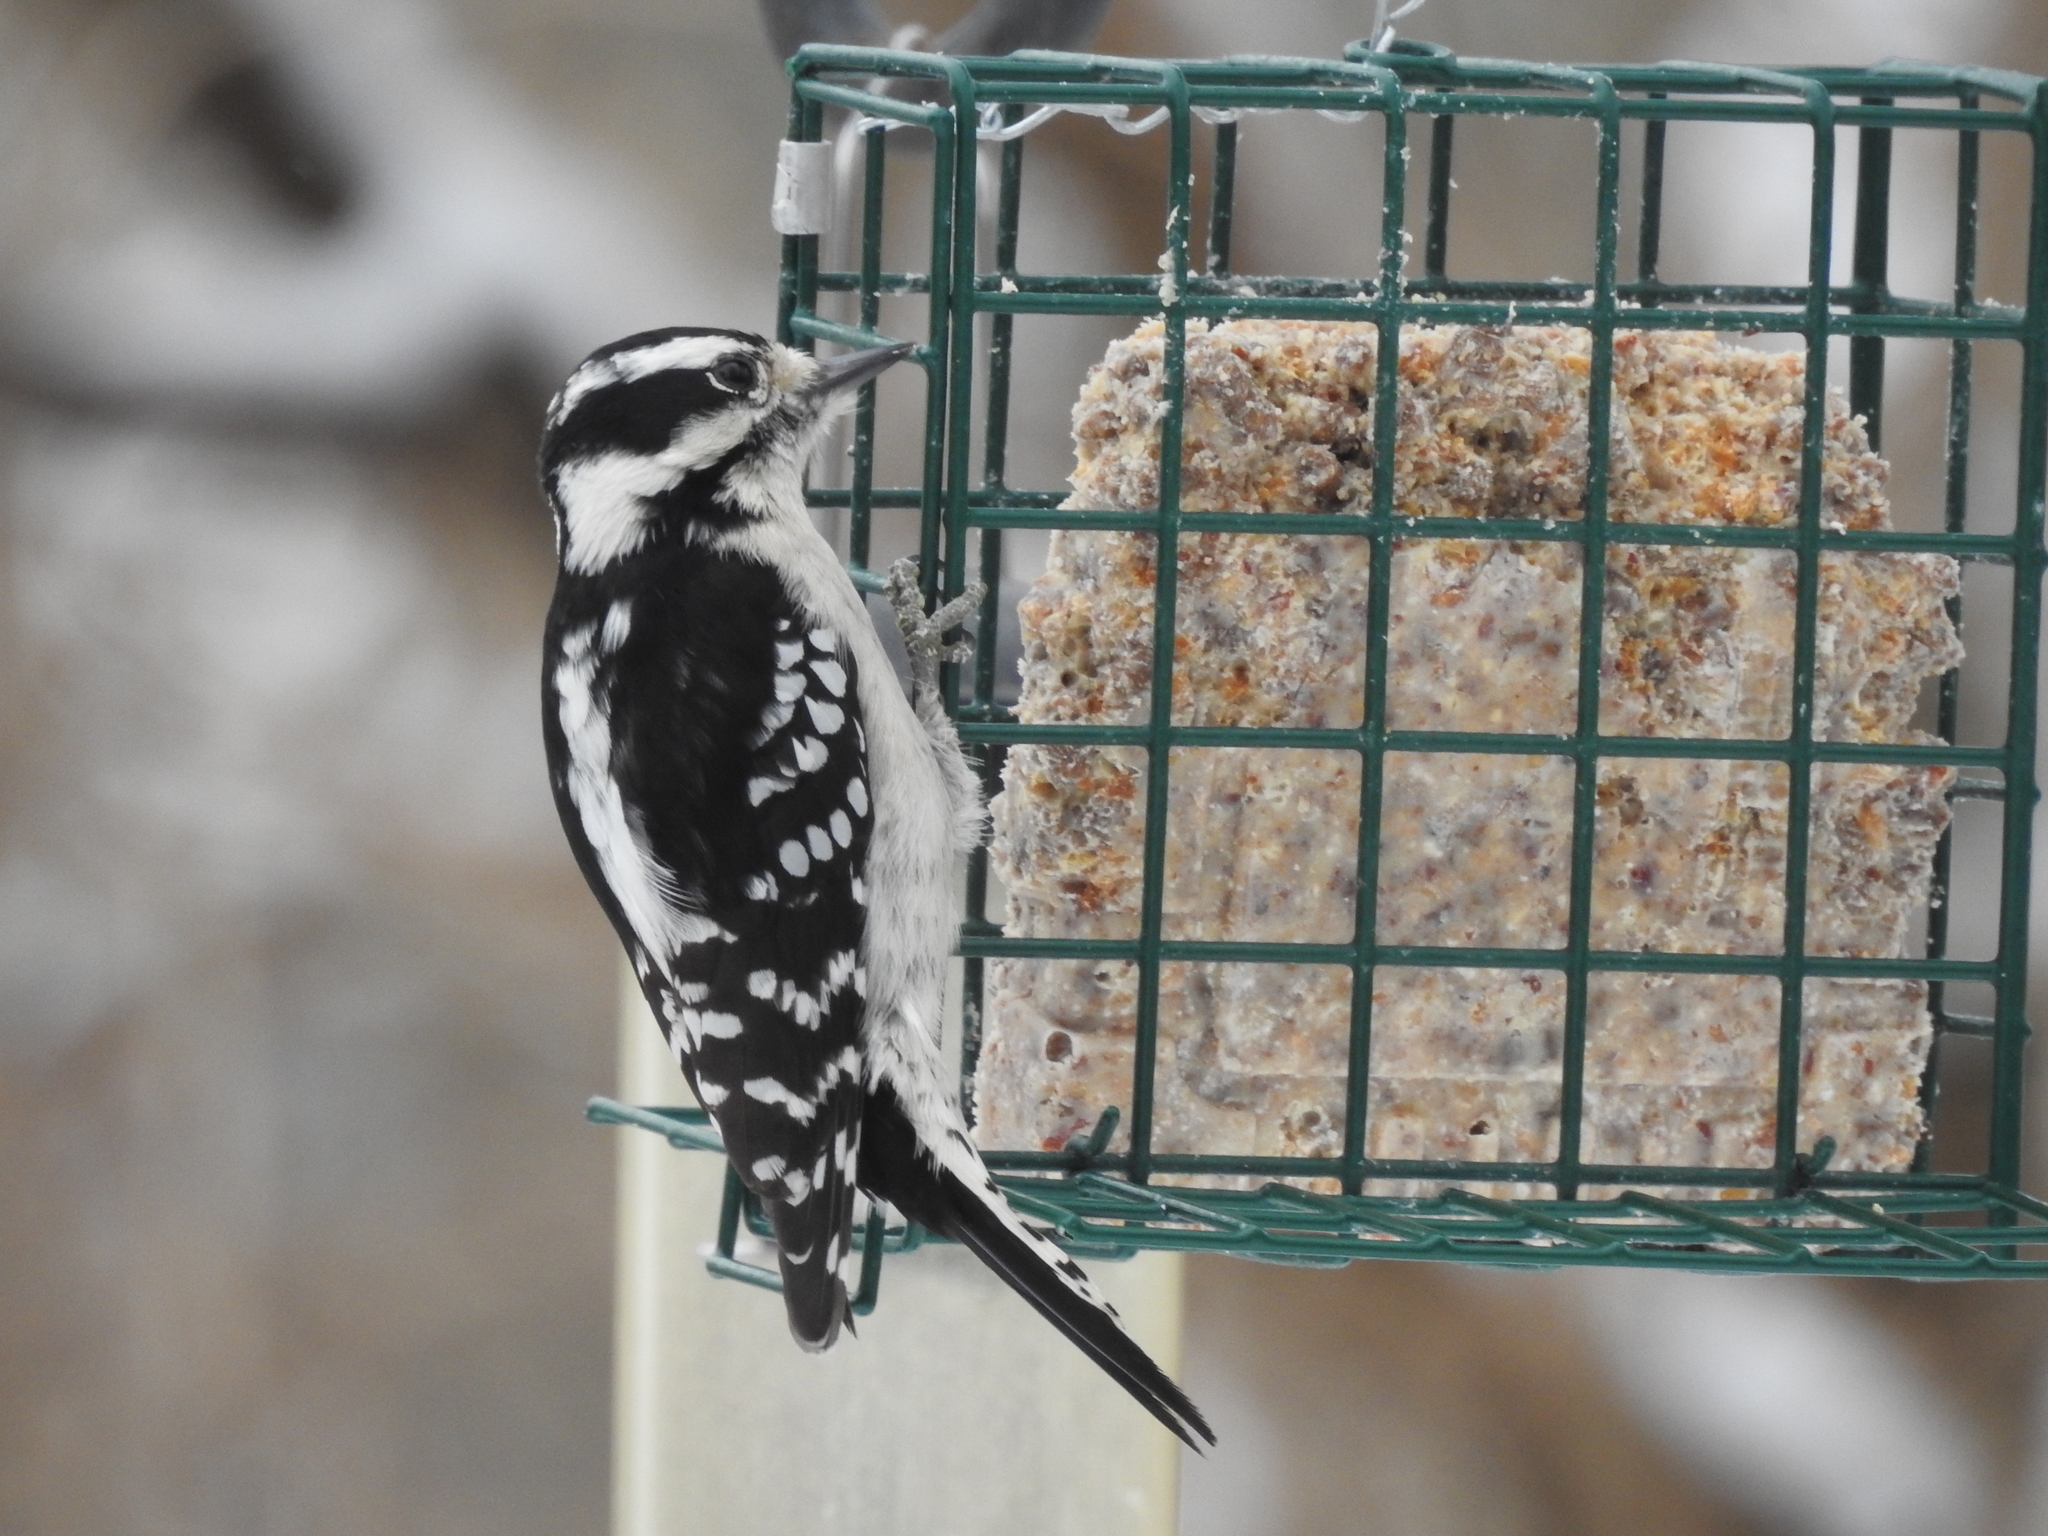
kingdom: Animalia
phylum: Chordata
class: Aves
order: Piciformes
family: Picidae
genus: Dryobates
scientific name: Dryobates pubescens
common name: Downy woodpecker
